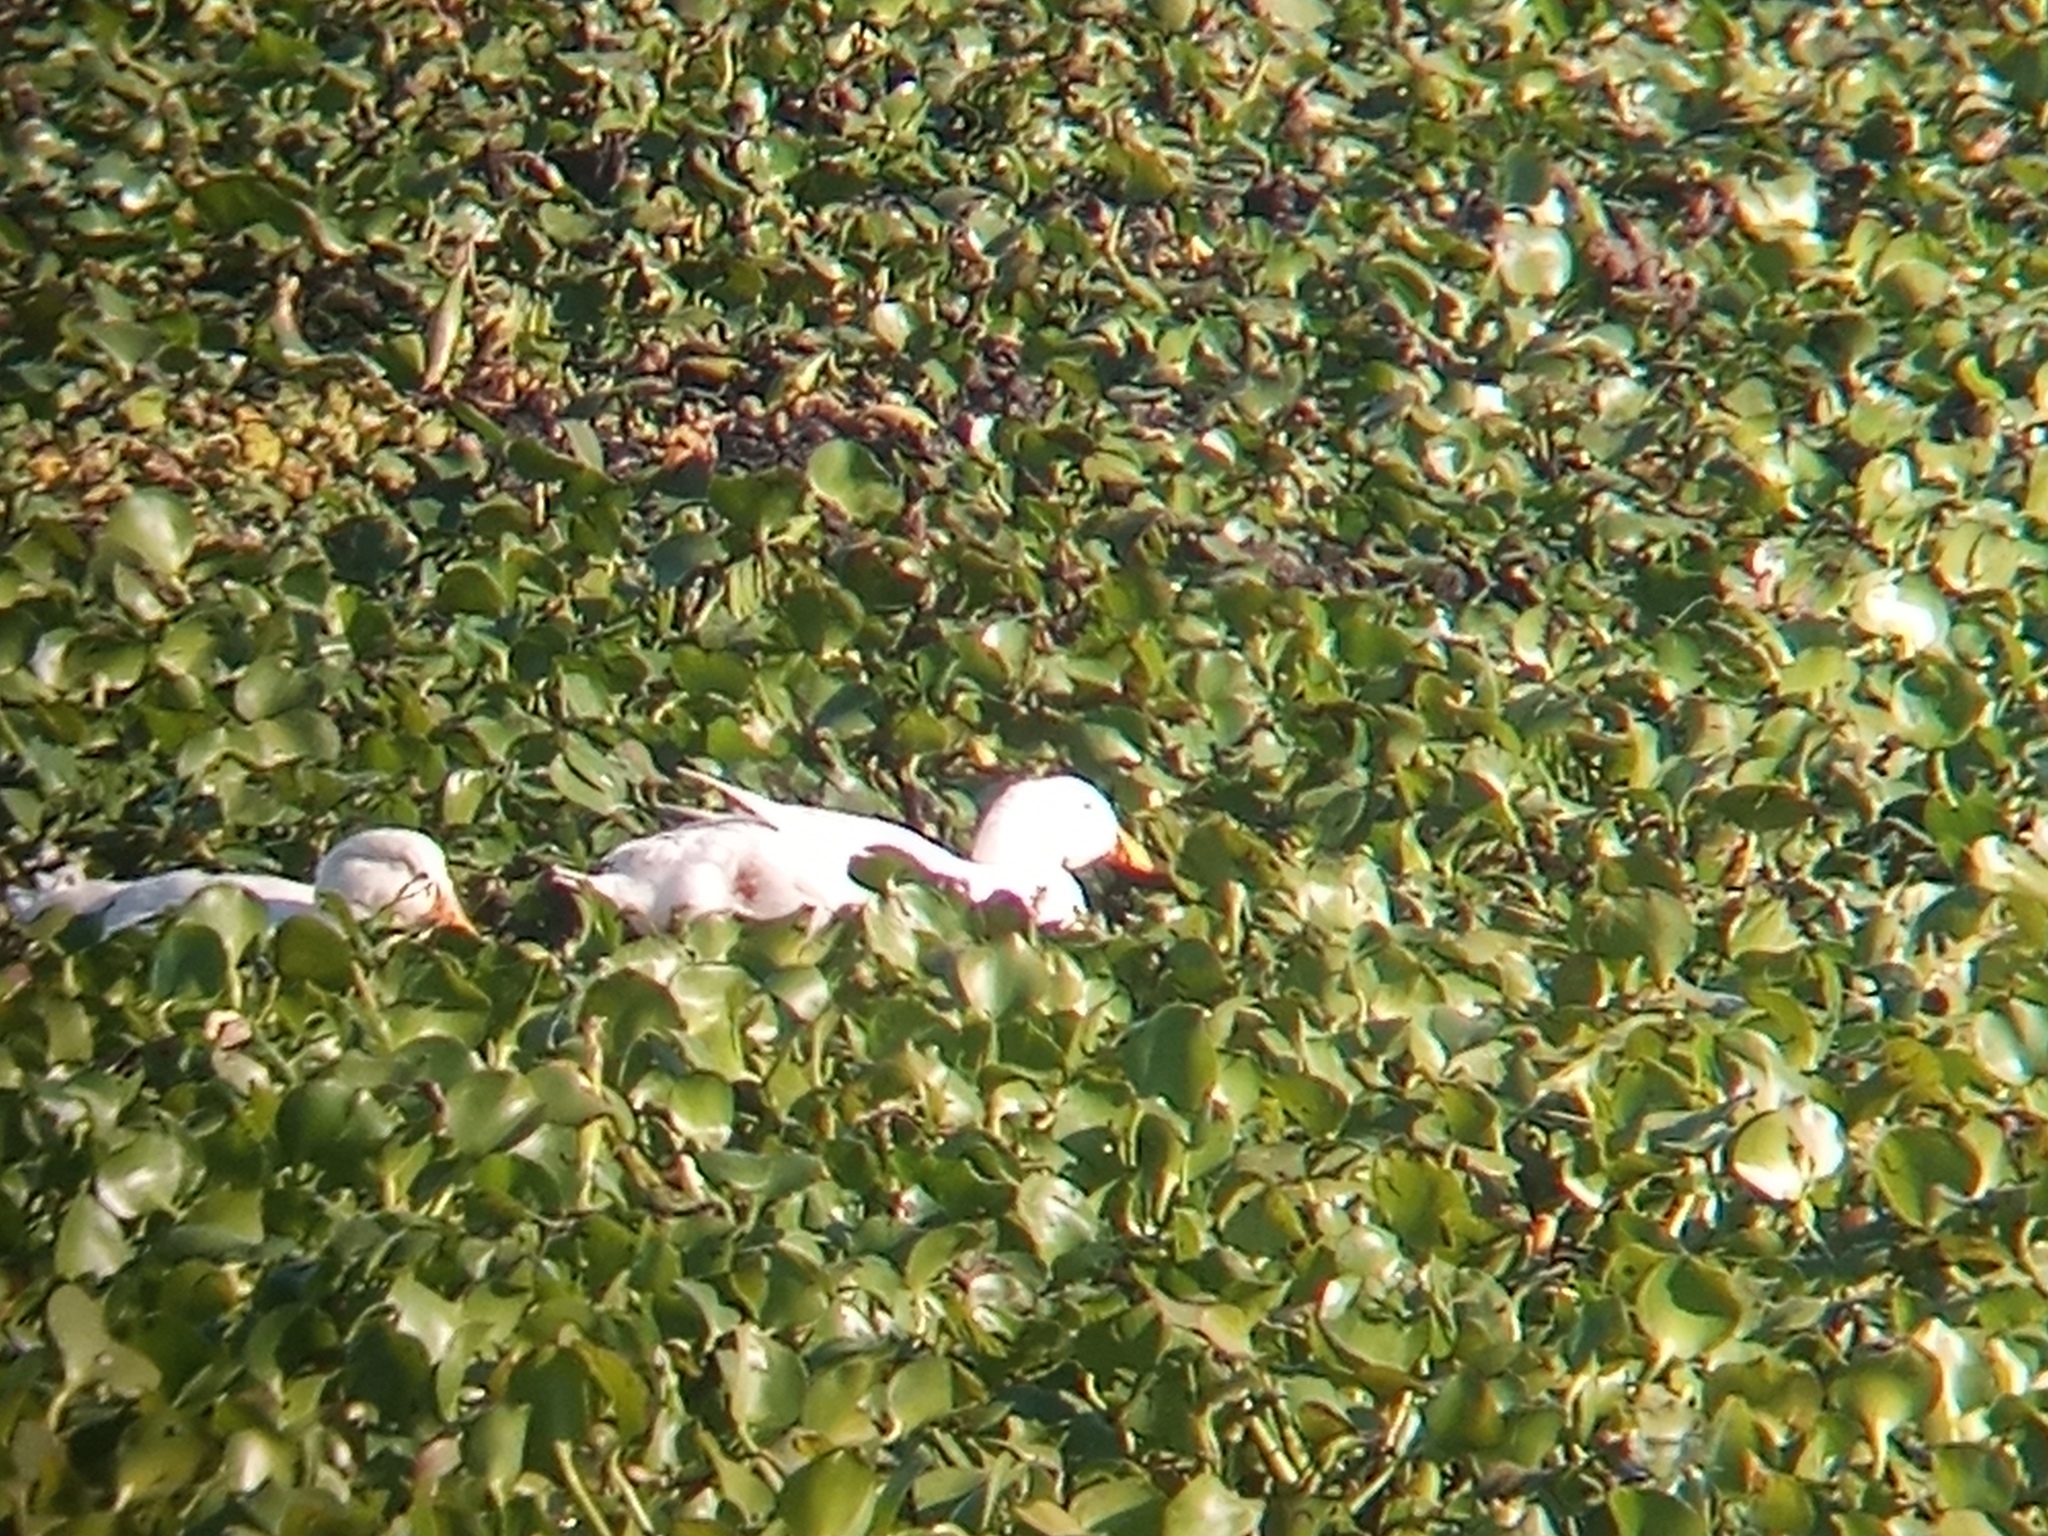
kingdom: Animalia
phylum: Chordata
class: Aves
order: Anseriformes
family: Anatidae
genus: Anas
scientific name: Anas platyrhynchos
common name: Mallard
